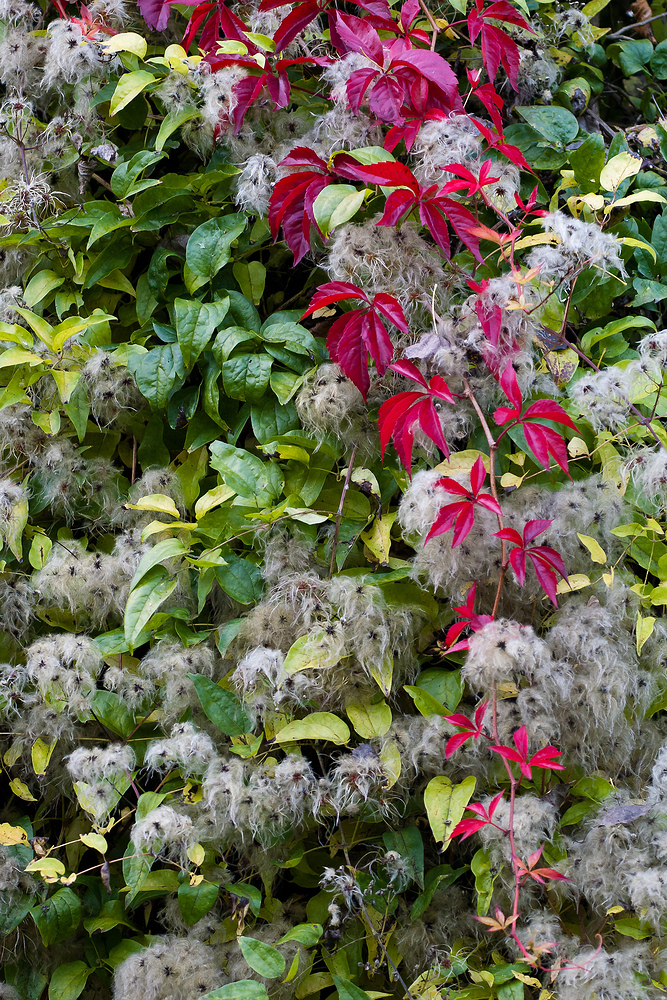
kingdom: Plantae
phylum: Tracheophyta
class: Magnoliopsida
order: Ranunculales
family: Ranunculaceae
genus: Clematis
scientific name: Clematis vitalba
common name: Evergreen clematis
